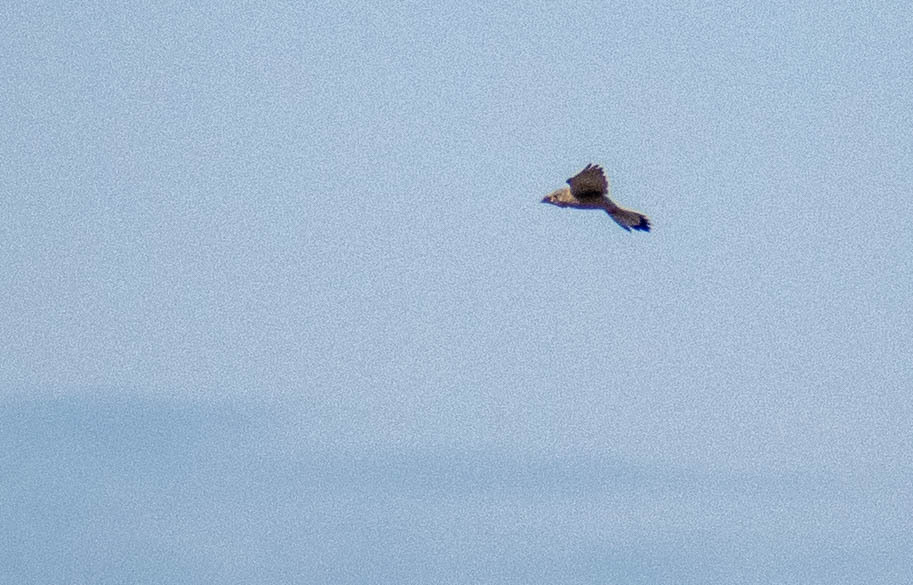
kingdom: Animalia
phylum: Chordata
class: Aves
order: Falconiformes
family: Falconidae
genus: Falco
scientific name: Falco tinnunculus
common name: Common kestrel
